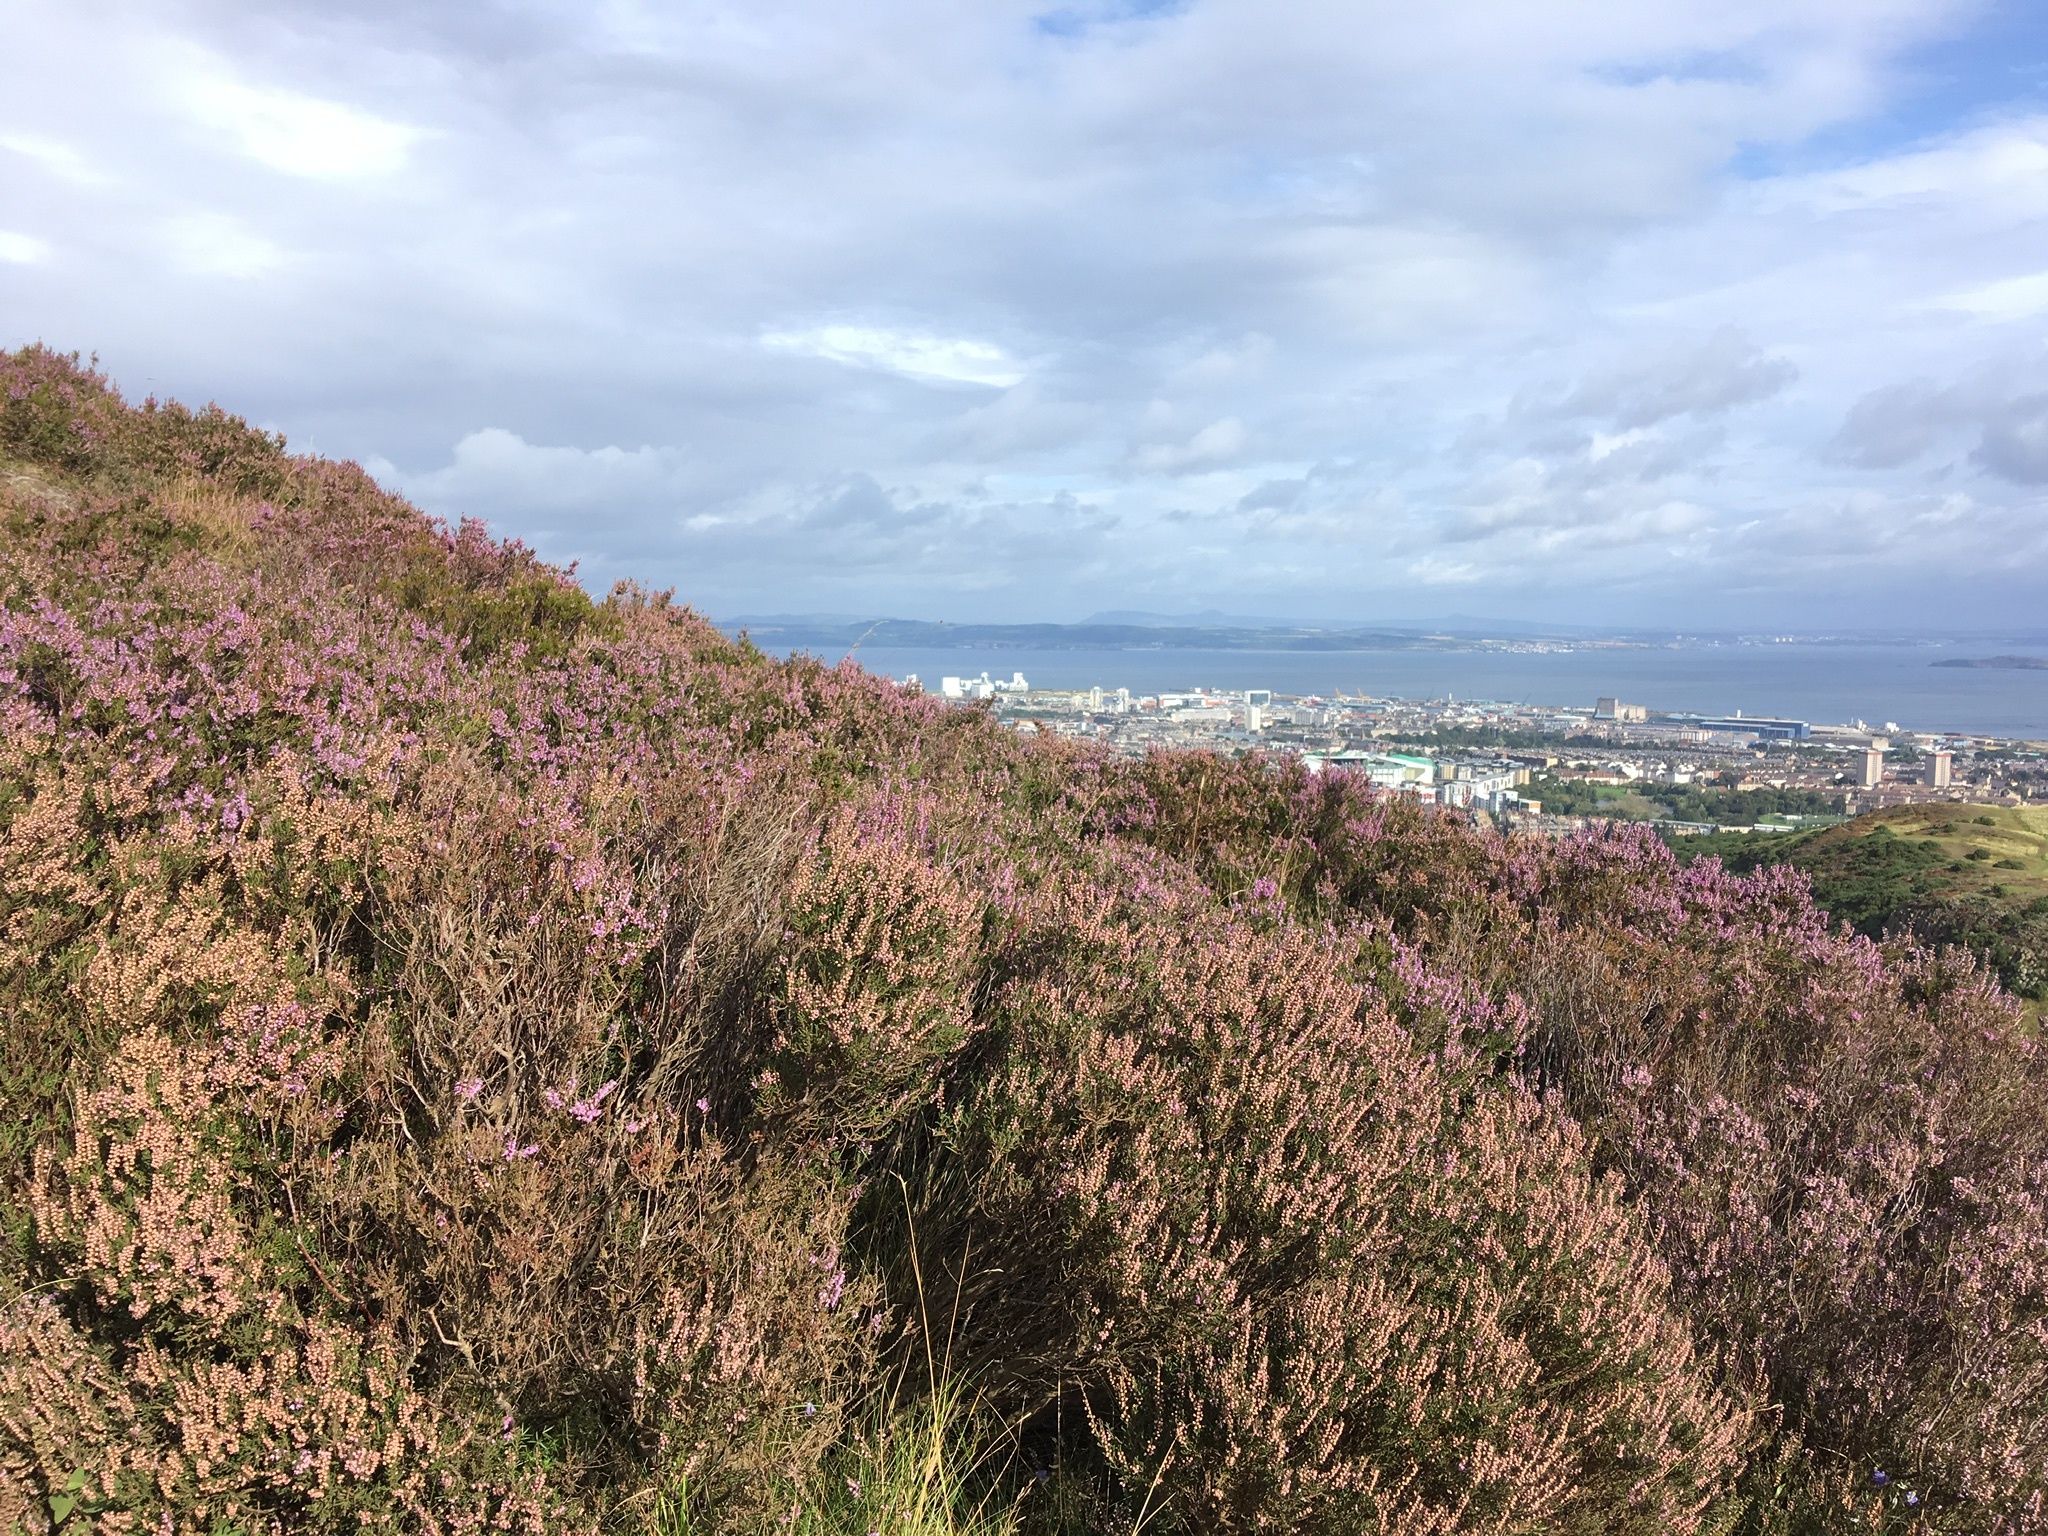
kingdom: Plantae
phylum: Tracheophyta
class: Magnoliopsida
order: Ericales
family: Ericaceae
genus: Calluna
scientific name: Calluna vulgaris
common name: Heather
